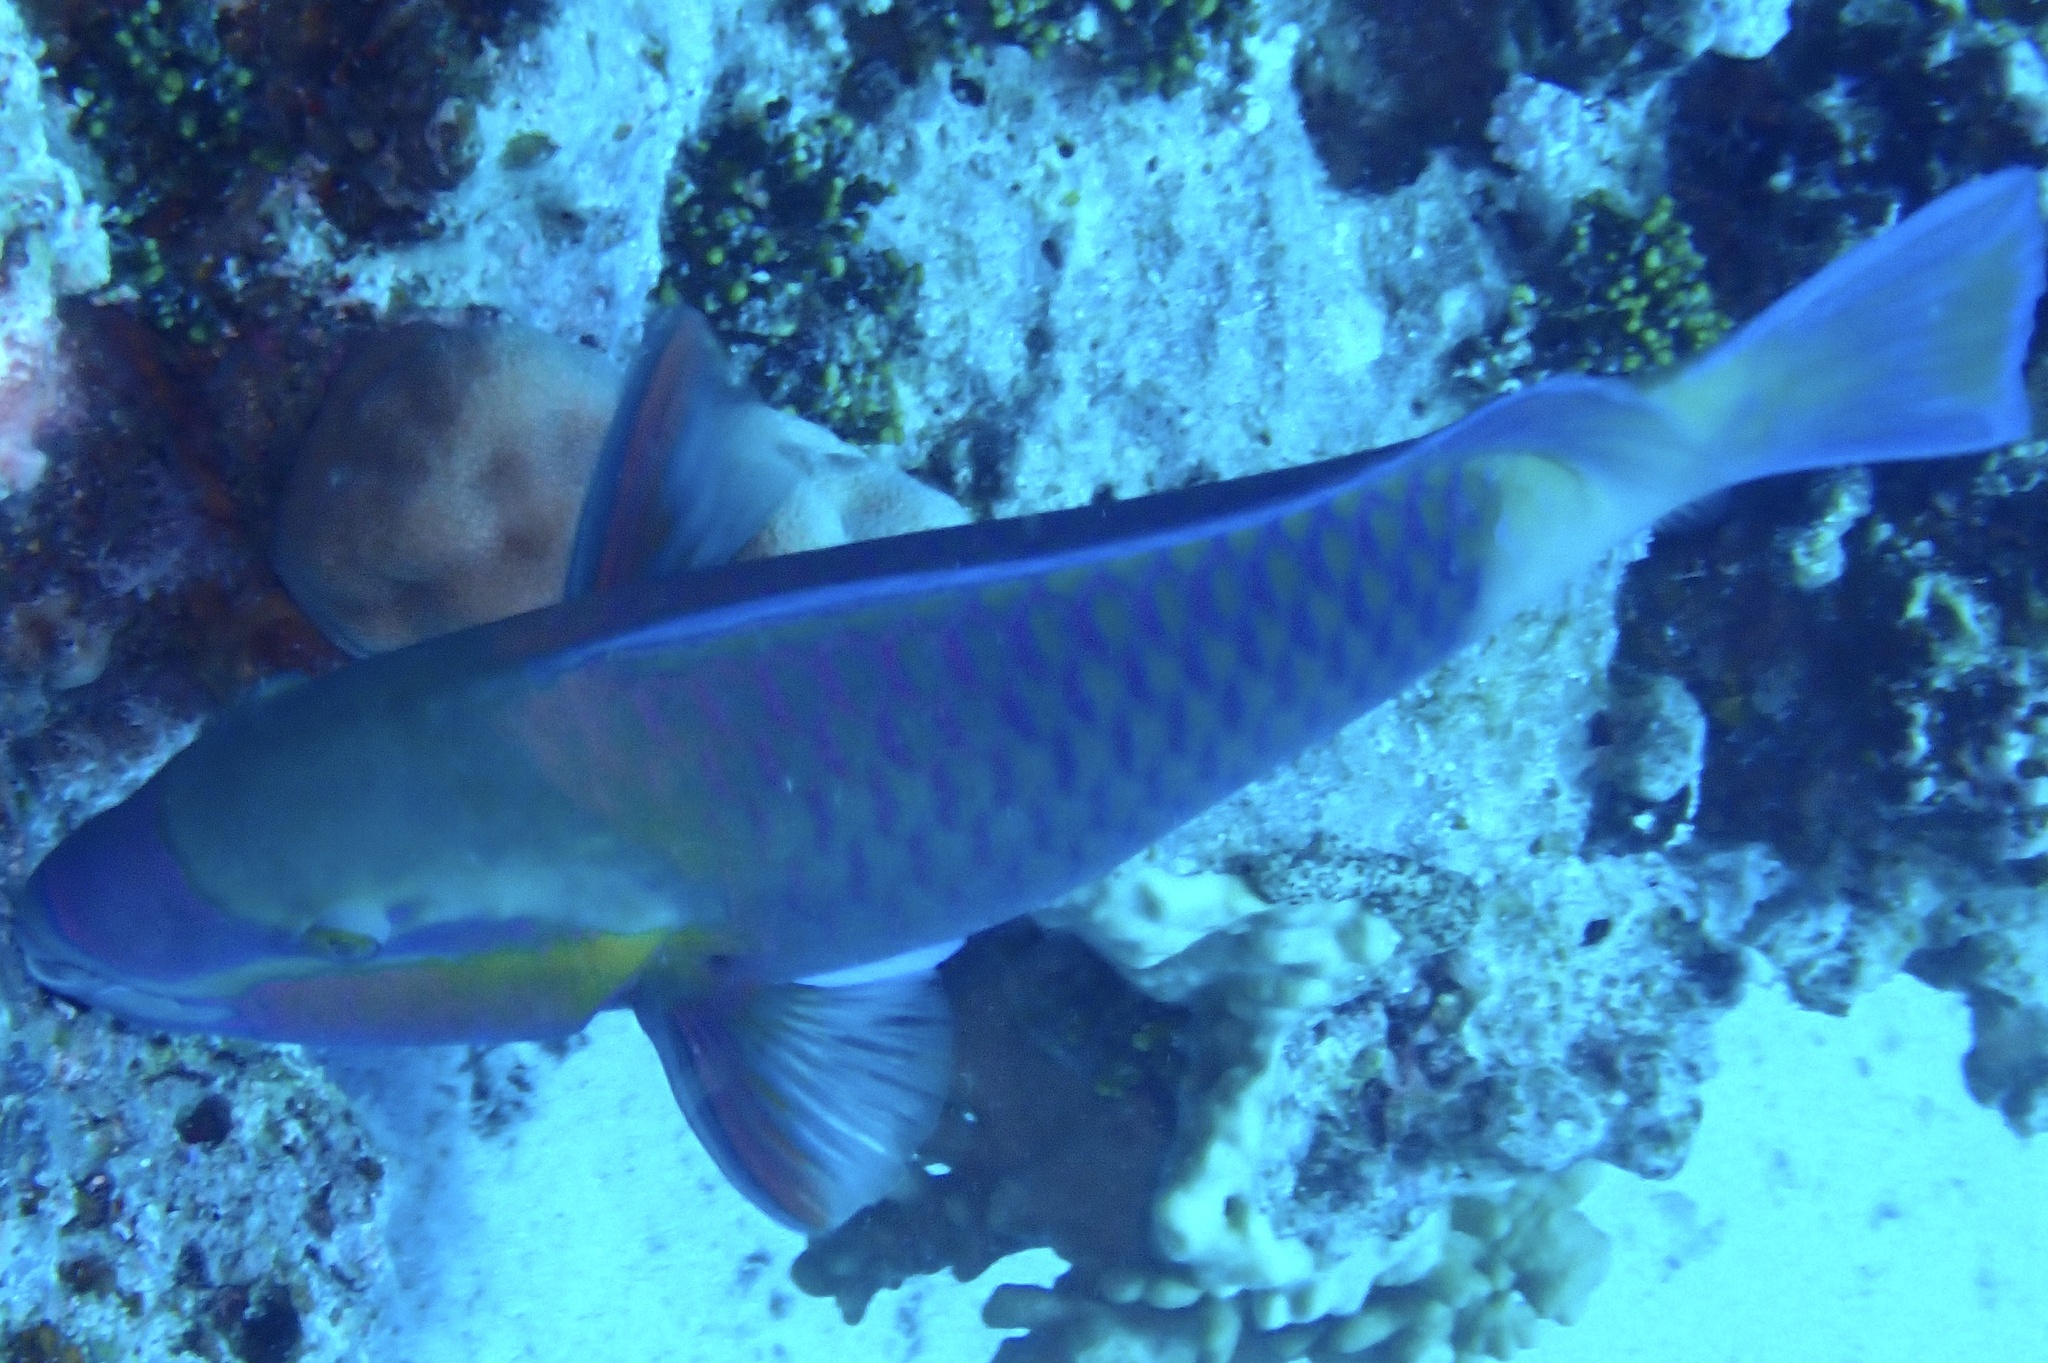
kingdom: Animalia
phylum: Chordata
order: Perciformes
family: Scaridae
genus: Chlorurus
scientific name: Chlorurus sordidus
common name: Bullethead parrotfish
